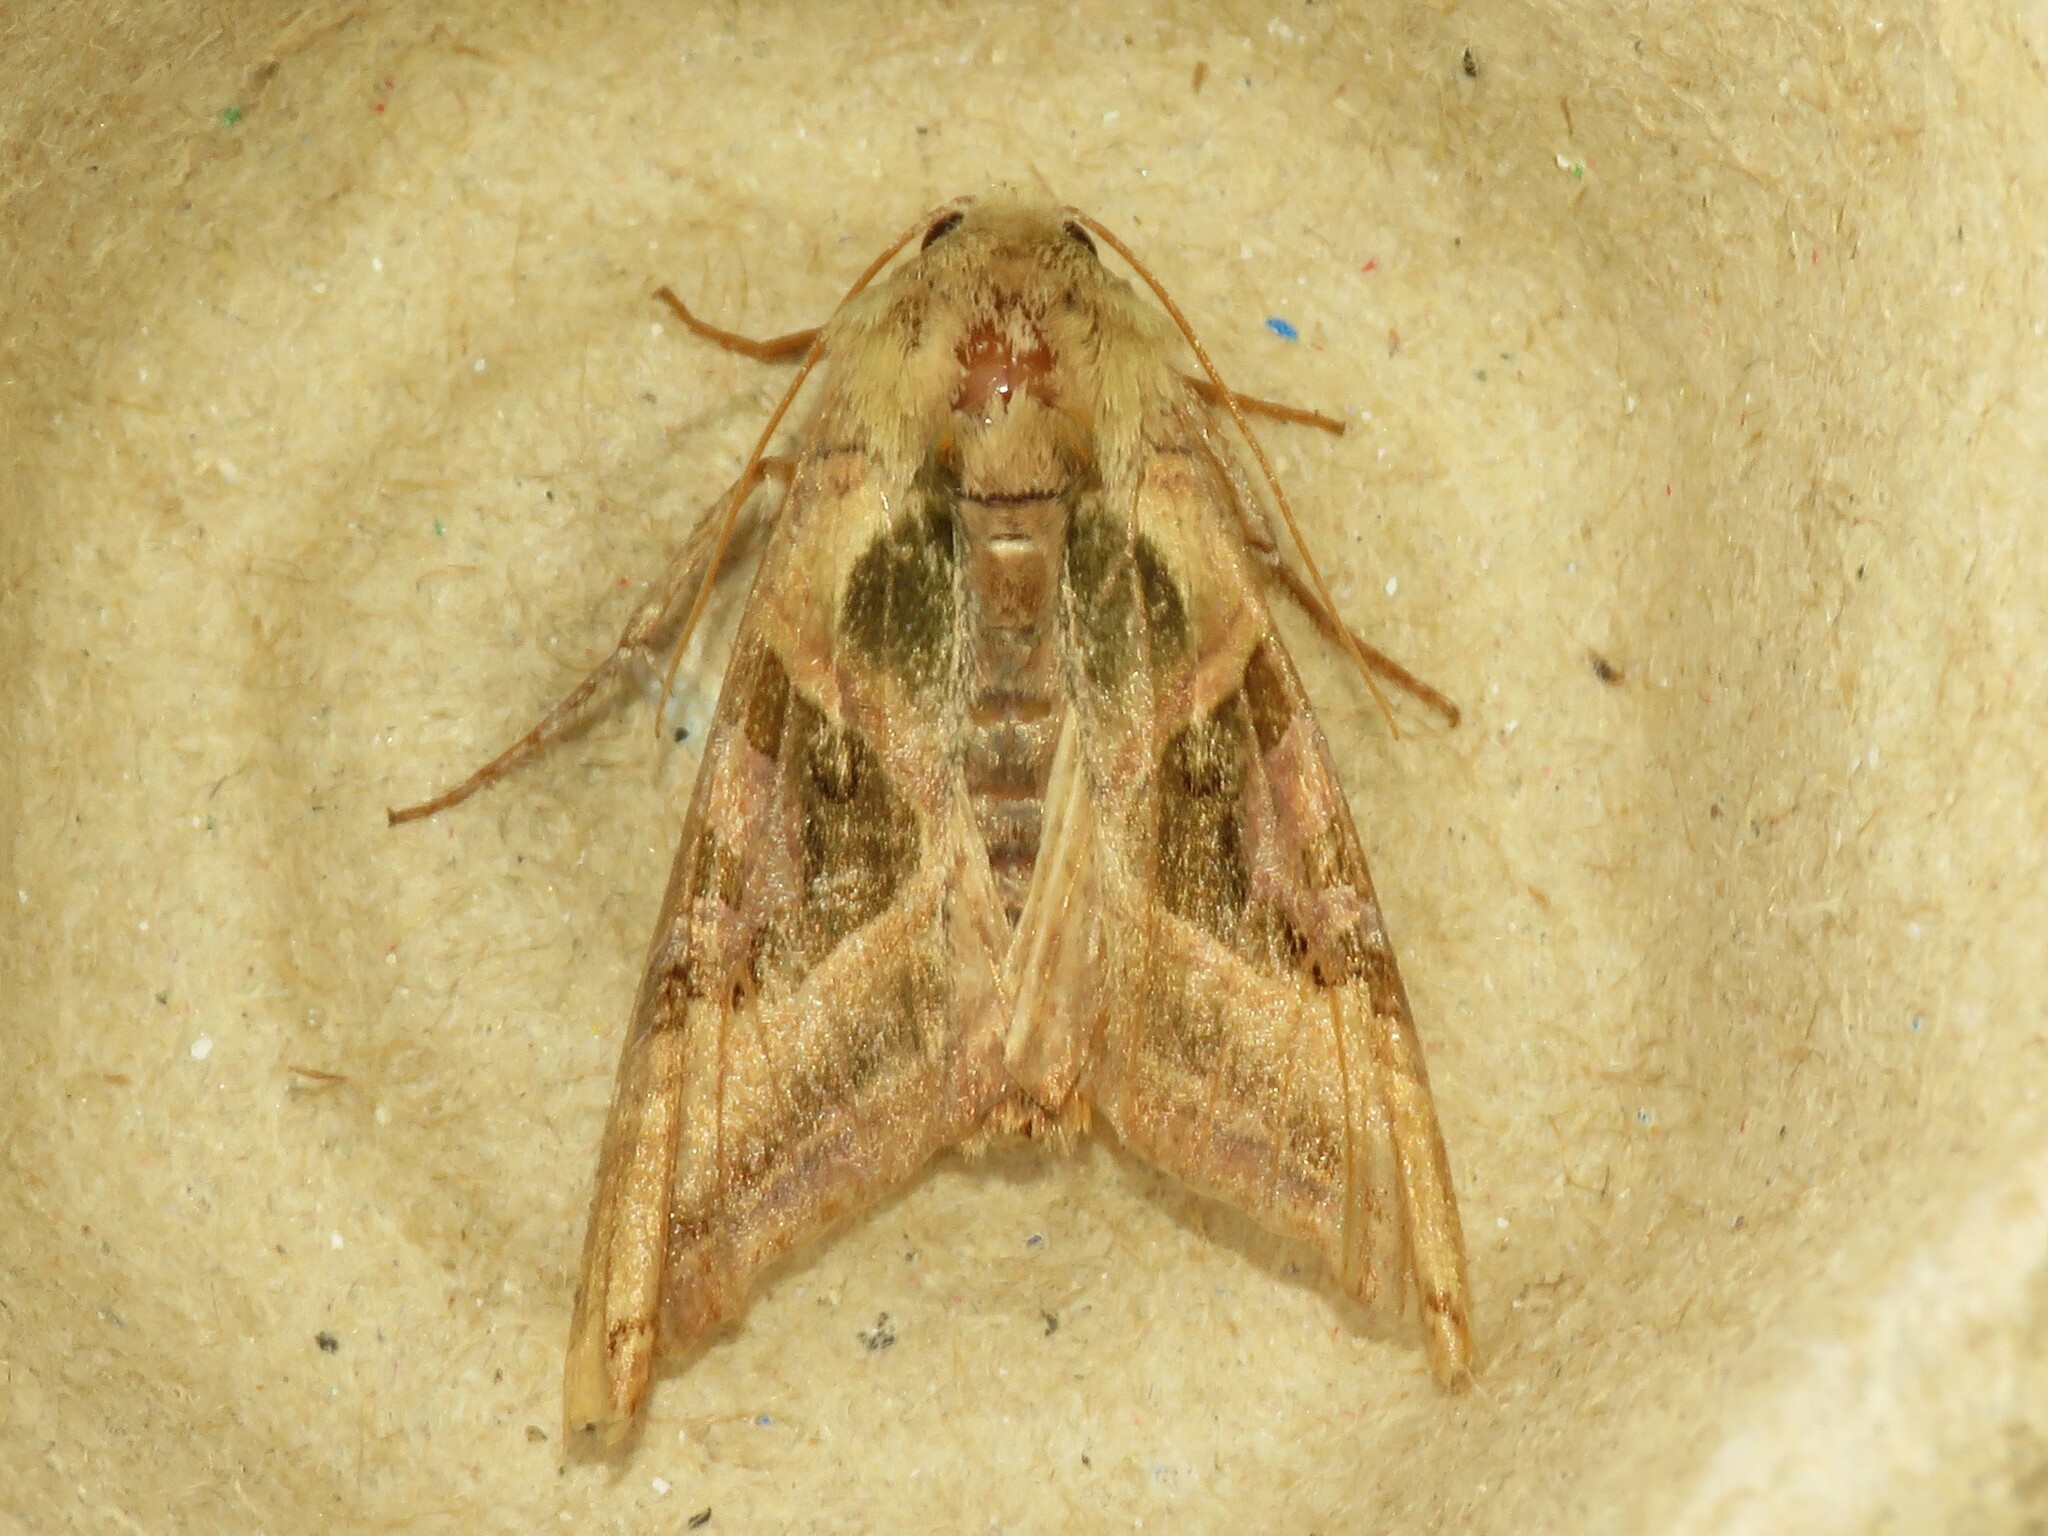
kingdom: Animalia
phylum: Arthropoda
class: Insecta
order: Lepidoptera
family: Noctuidae
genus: Phlogophora
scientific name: Phlogophora iris
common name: Olive angle shades
